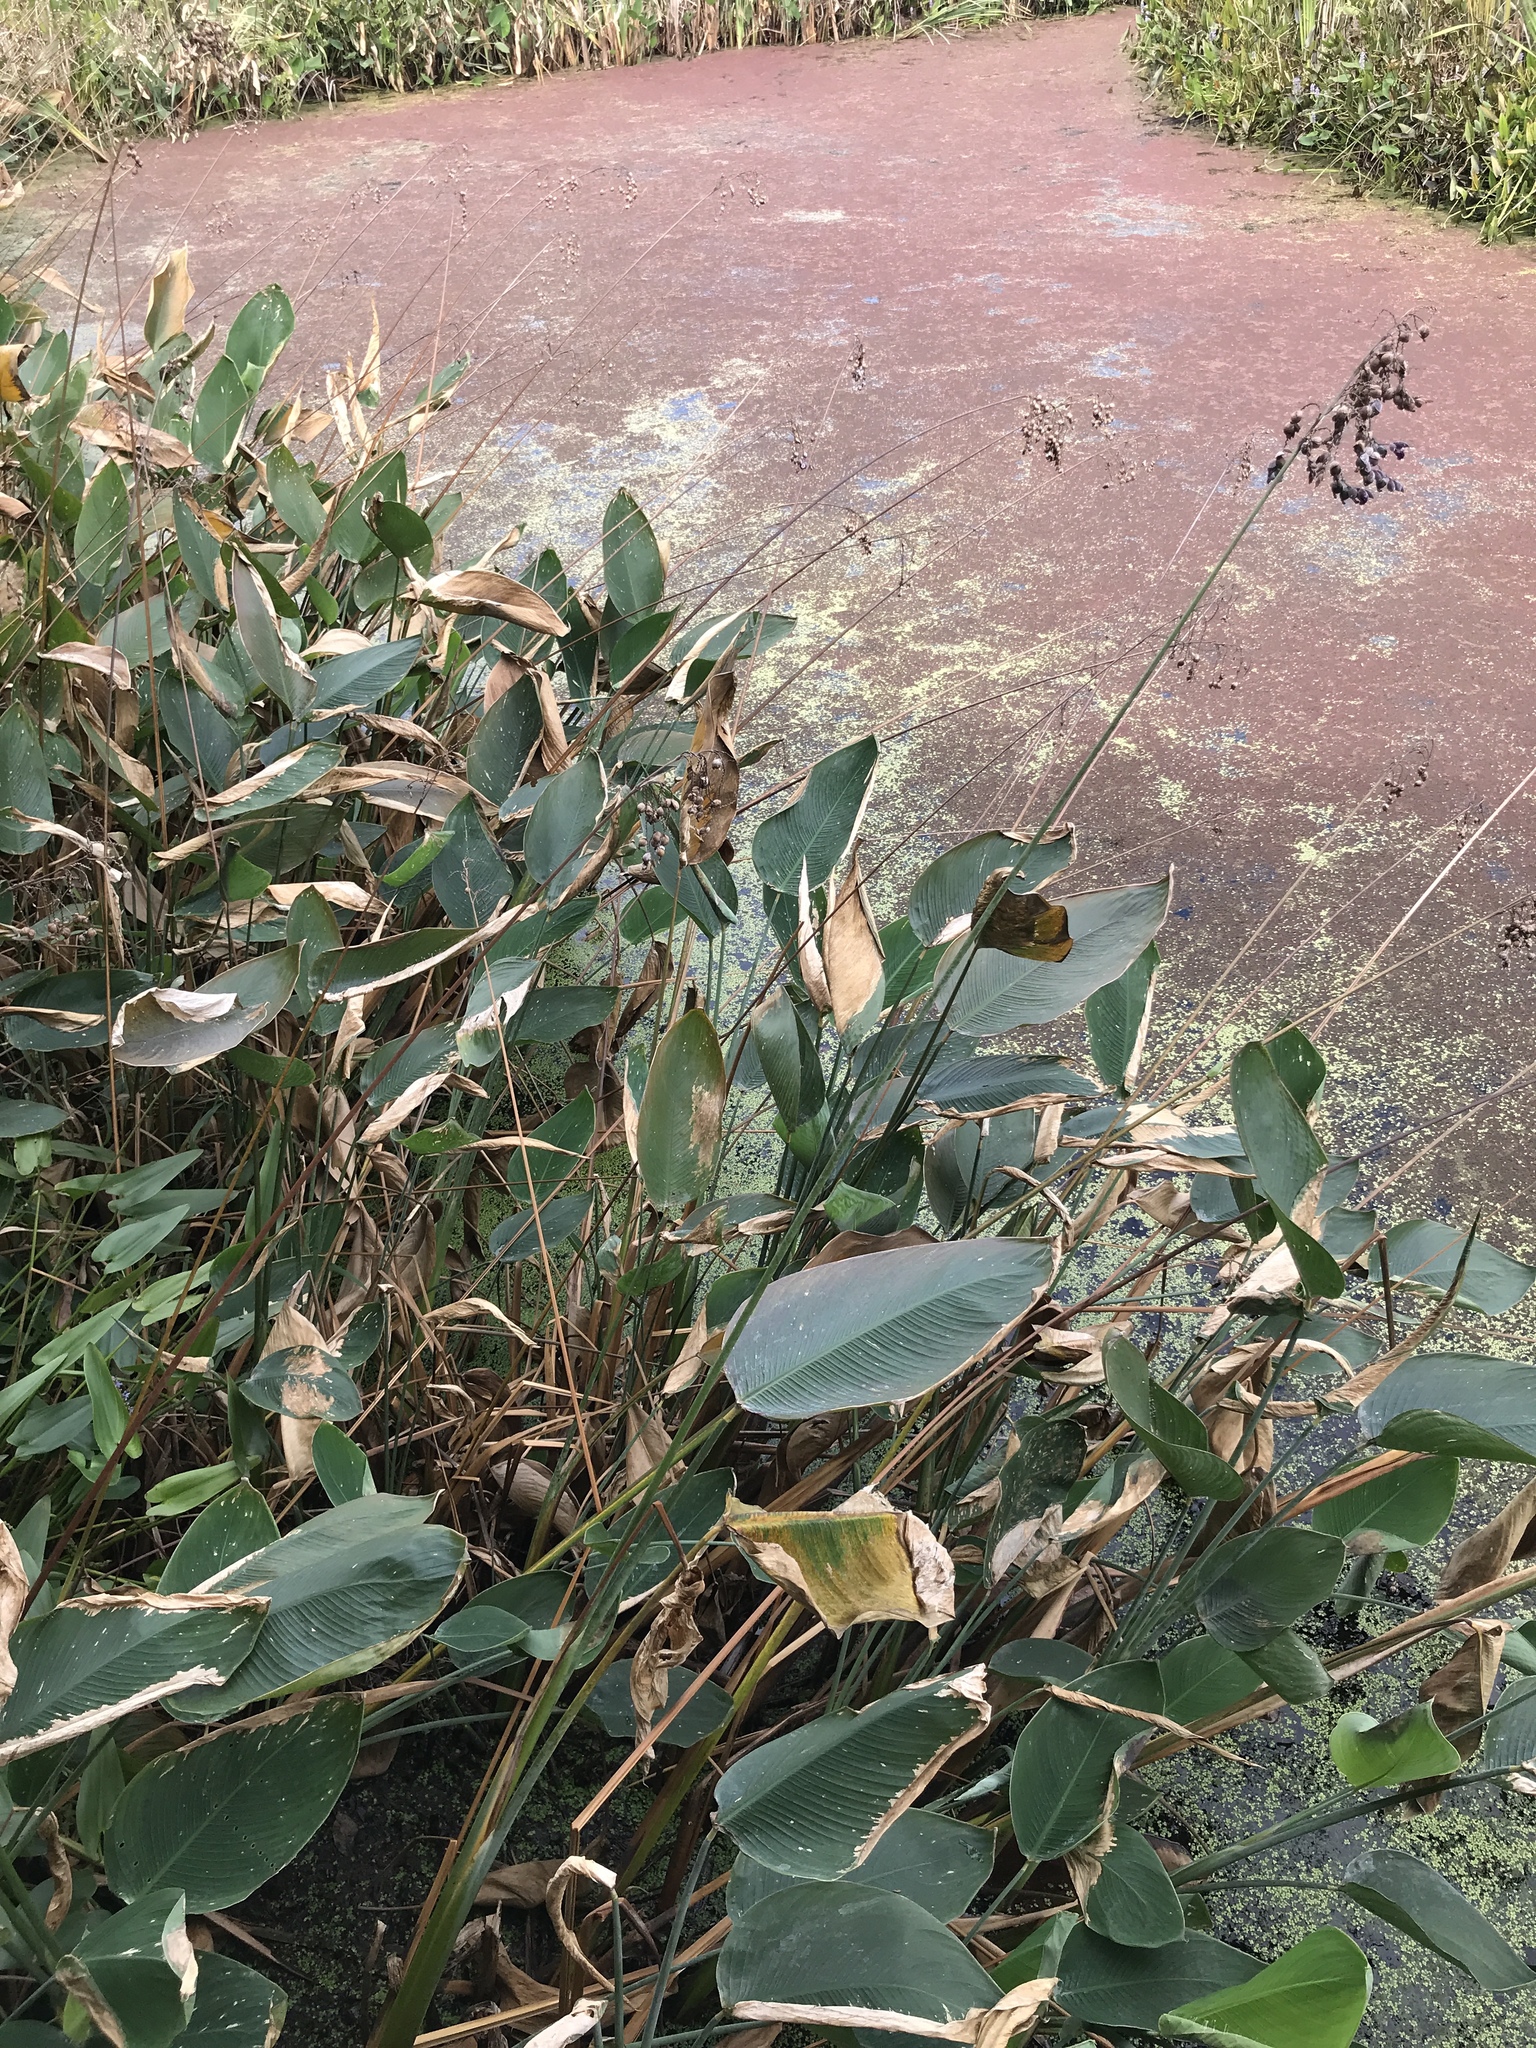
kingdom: Plantae
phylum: Tracheophyta
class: Liliopsida
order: Zingiberales
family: Marantaceae
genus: Thalia
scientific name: Thalia dealbata
